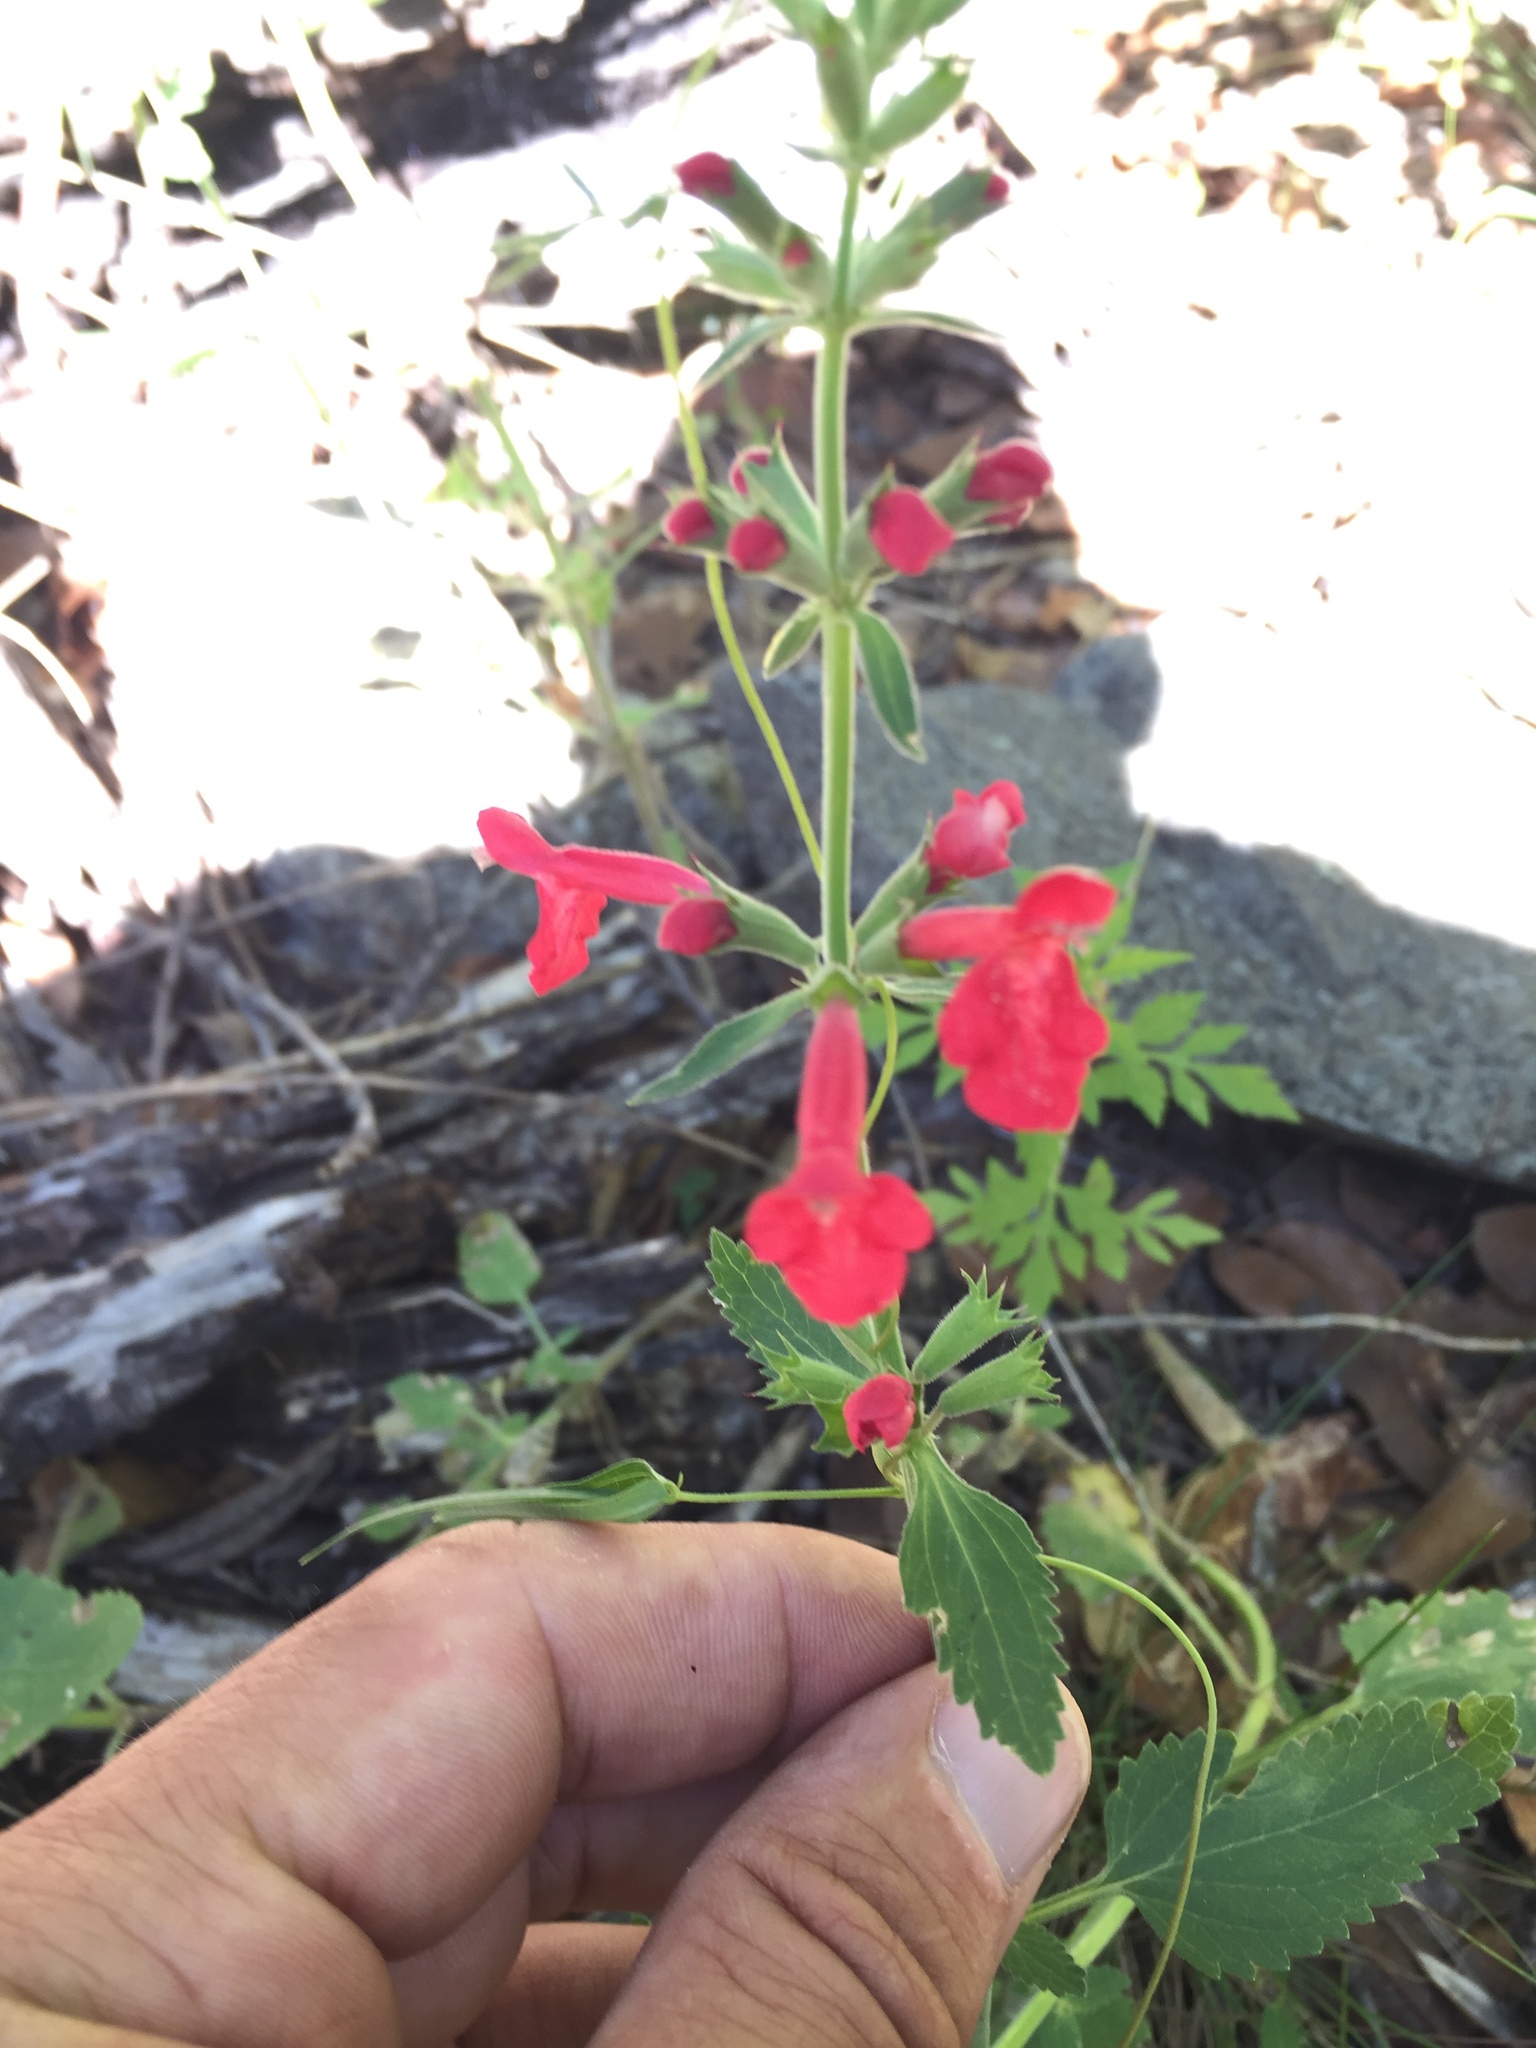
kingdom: Plantae
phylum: Tracheophyta
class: Magnoliopsida
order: Lamiales
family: Lamiaceae
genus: Stachys
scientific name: Stachys coccinea
